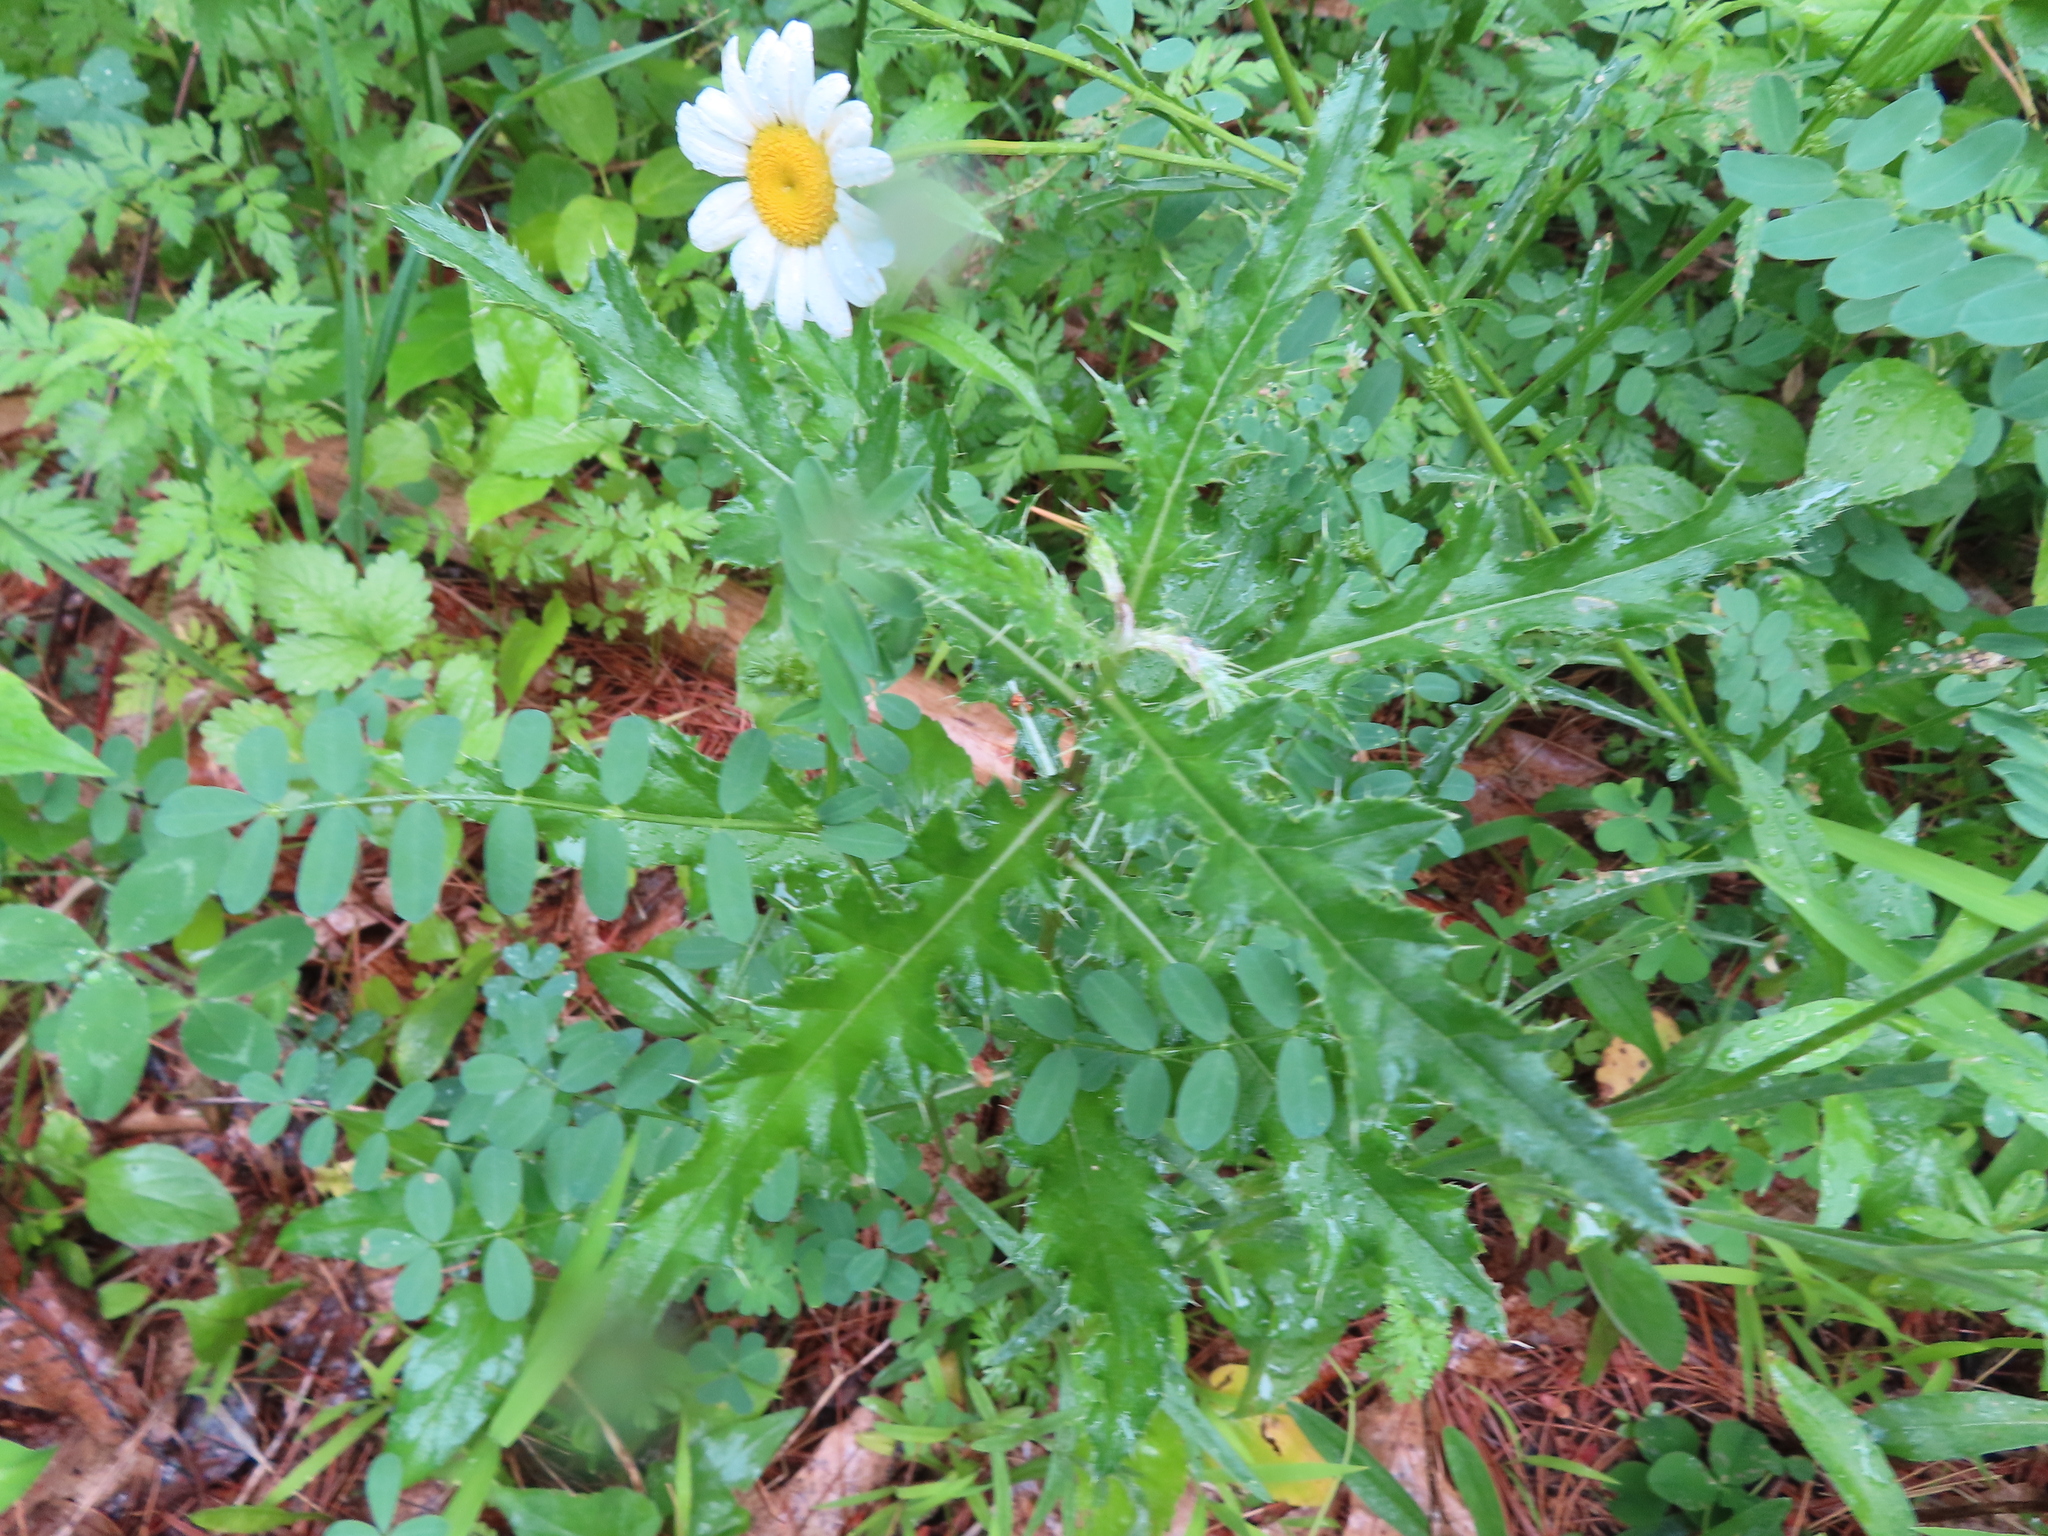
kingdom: Plantae
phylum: Tracheophyta
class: Magnoliopsida
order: Asterales
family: Asteraceae
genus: Cirsium
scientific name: Cirsium arvense
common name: Creeping thistle
